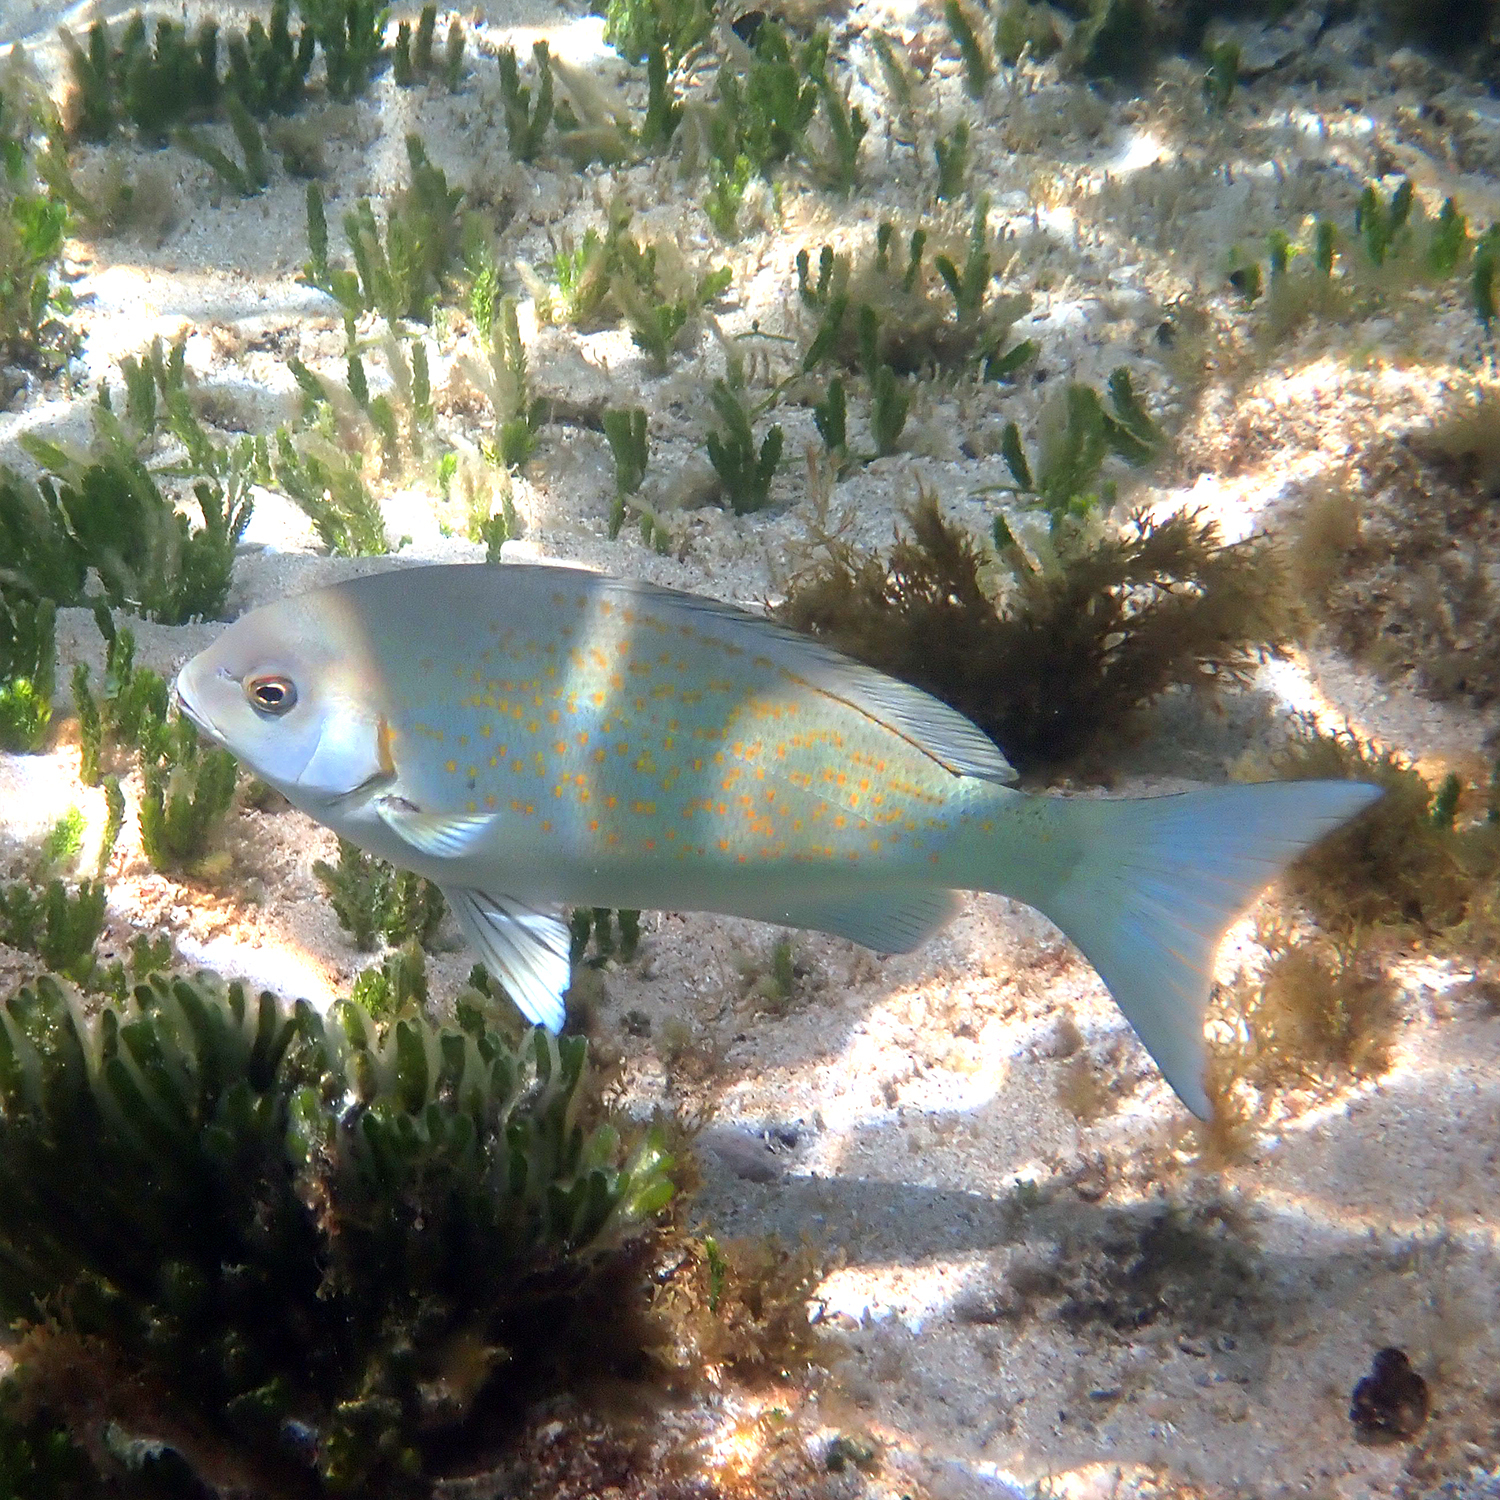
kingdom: Animalia
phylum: Chordata
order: Perciformes
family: Kyphosidae
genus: Girella
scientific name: Girella cyanea
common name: Bluefish
